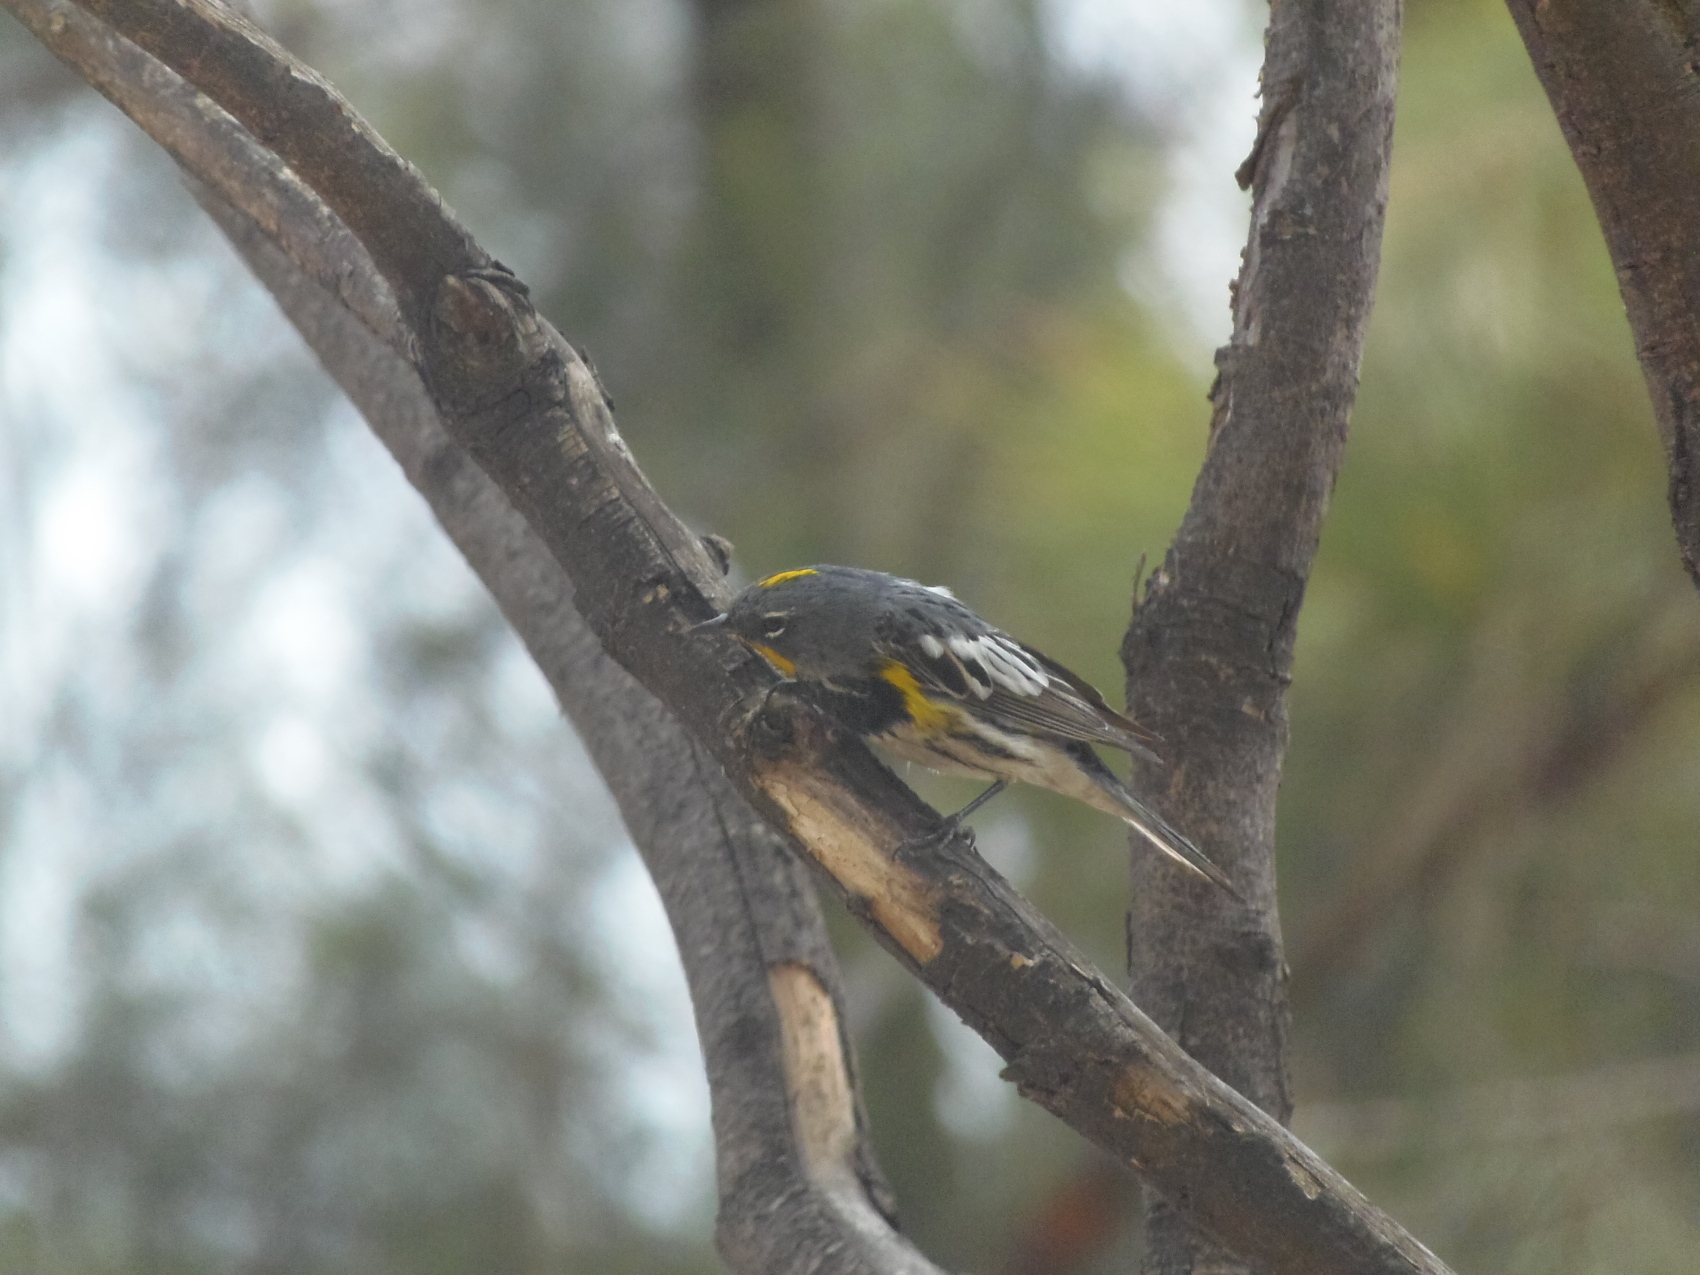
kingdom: Animalia
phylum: Chordata
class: Aves
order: Passeriformes
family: Parulidae
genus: Setophaga
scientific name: Setophaga auduboni
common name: Audubon's warbler
